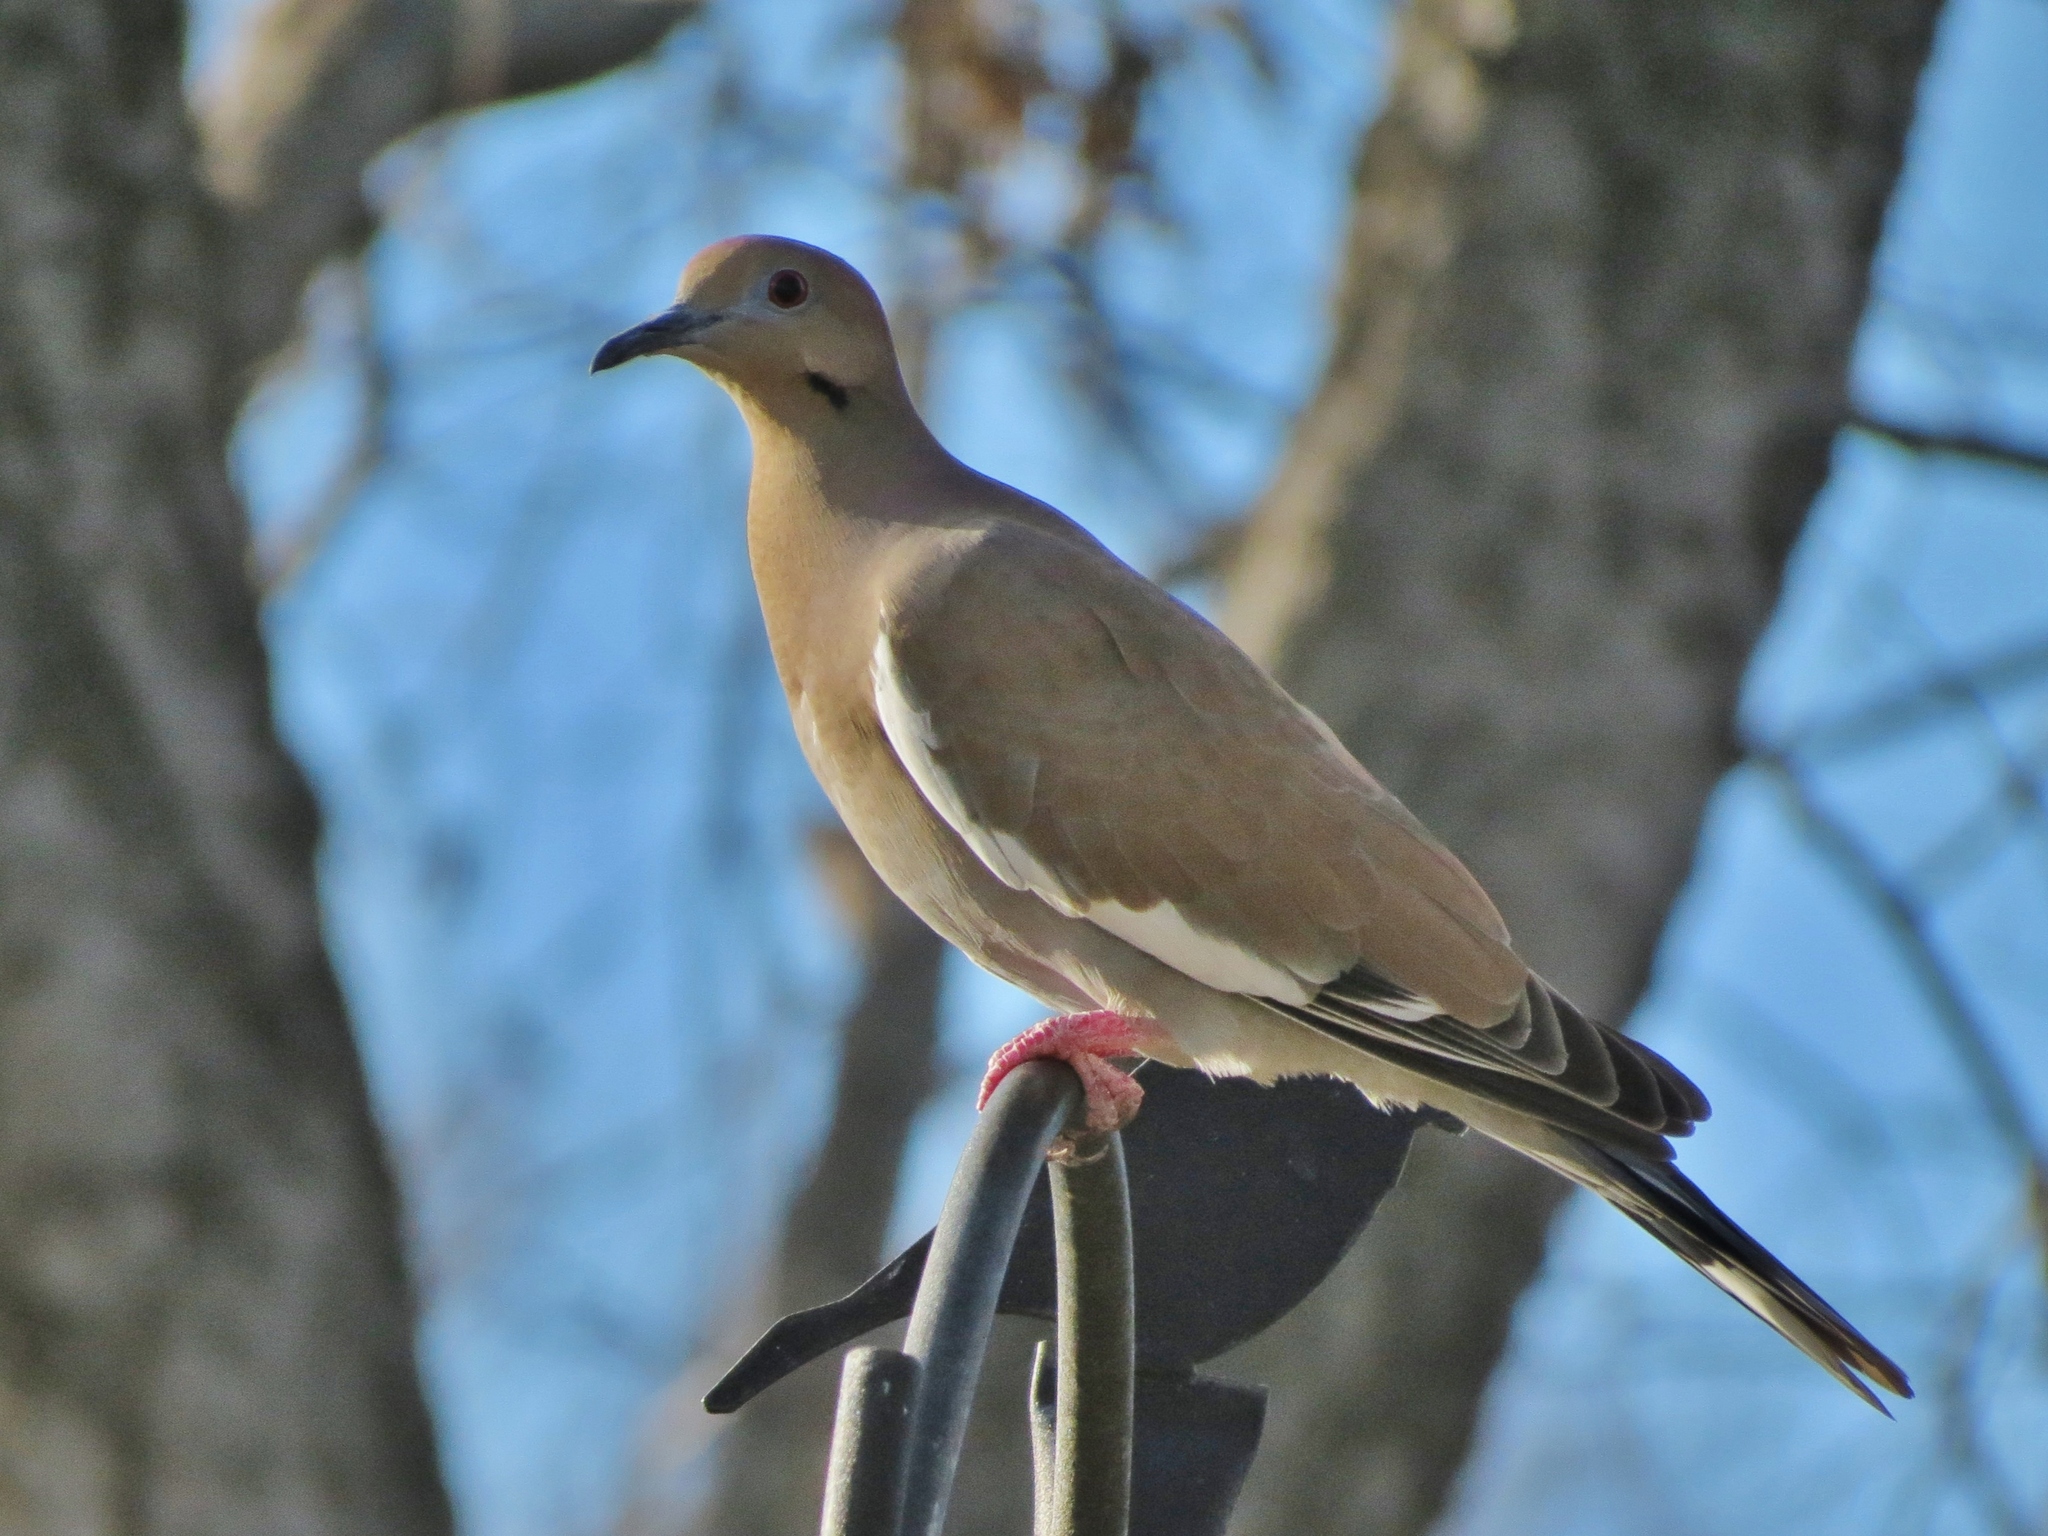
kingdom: Animalia
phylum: Chordata
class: Aves
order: Columbiformes
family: Columbidae
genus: Zenaida
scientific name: Zenaida asiatica
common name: White-winged dove
